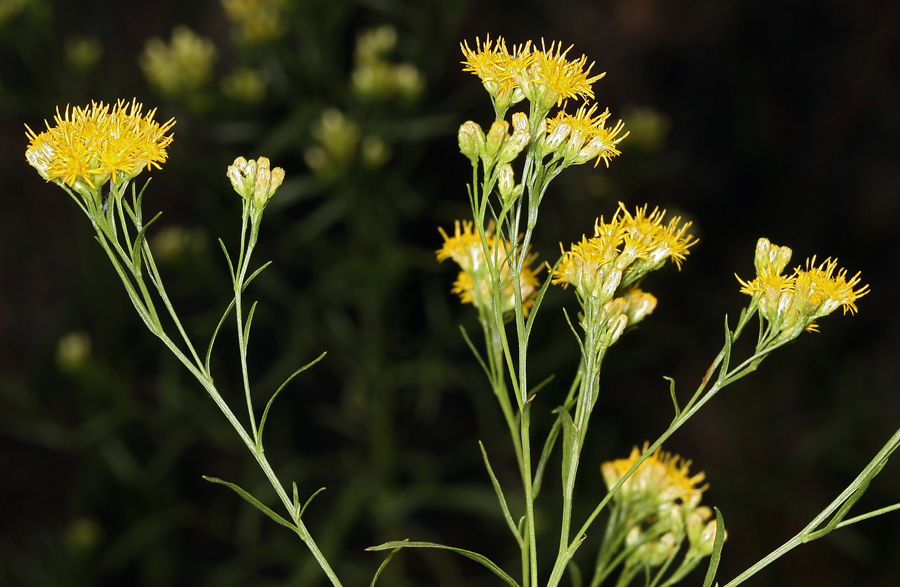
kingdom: Plantae
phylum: Tracheophyta
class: Magnoliopsida
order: Asterales
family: Asteraceae
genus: Euthamia
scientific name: Euthamia occidentalis
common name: Western goldentop
